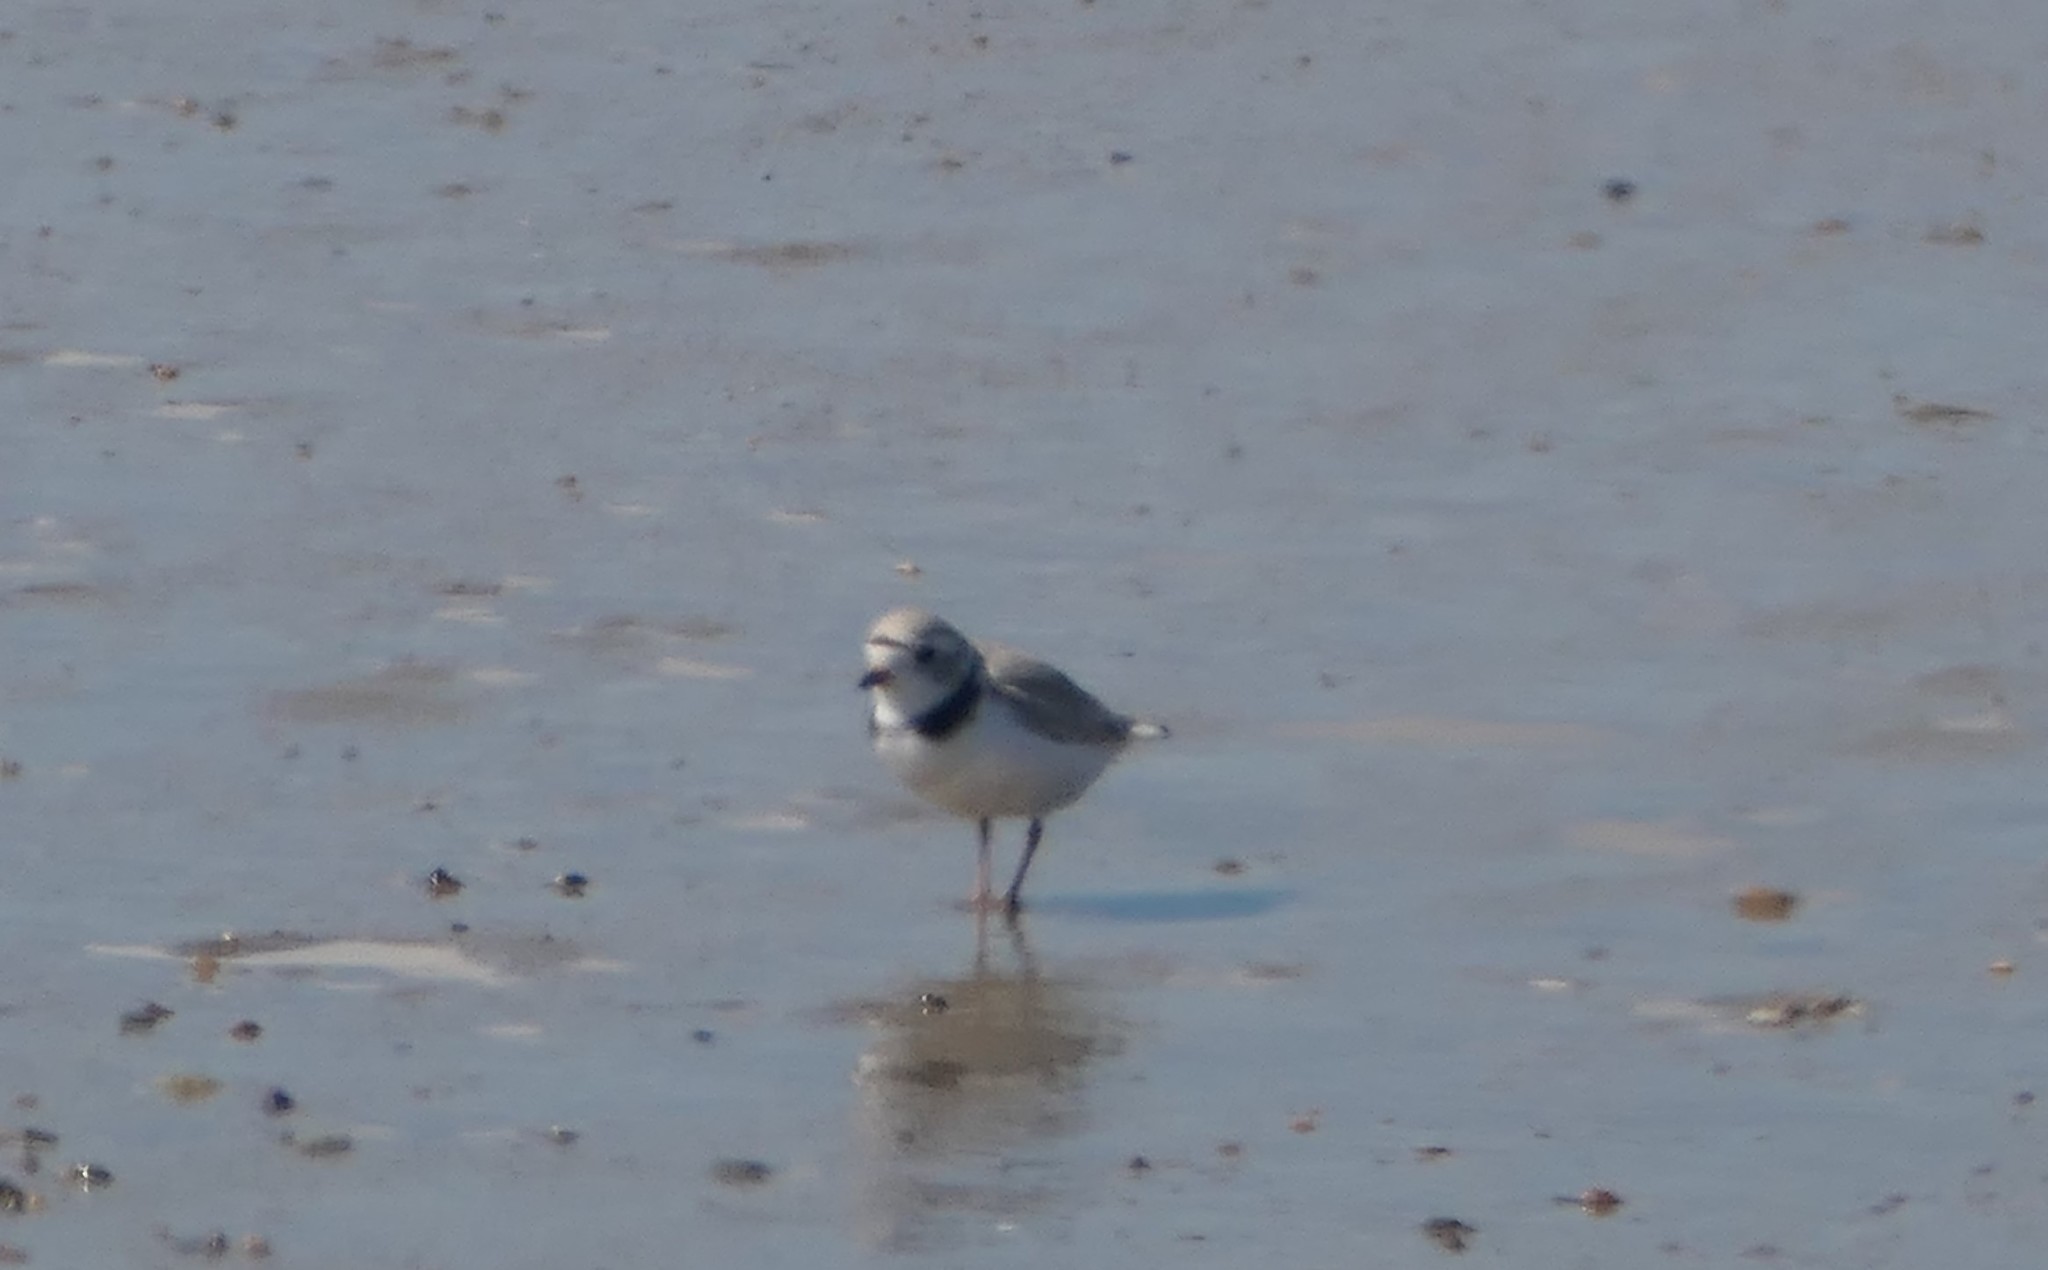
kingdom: Animalia
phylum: Chordata
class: Aves
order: Charadriiformes
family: Charadriidae
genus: Charadrius
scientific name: Charadrius melodus
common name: Piping plover
